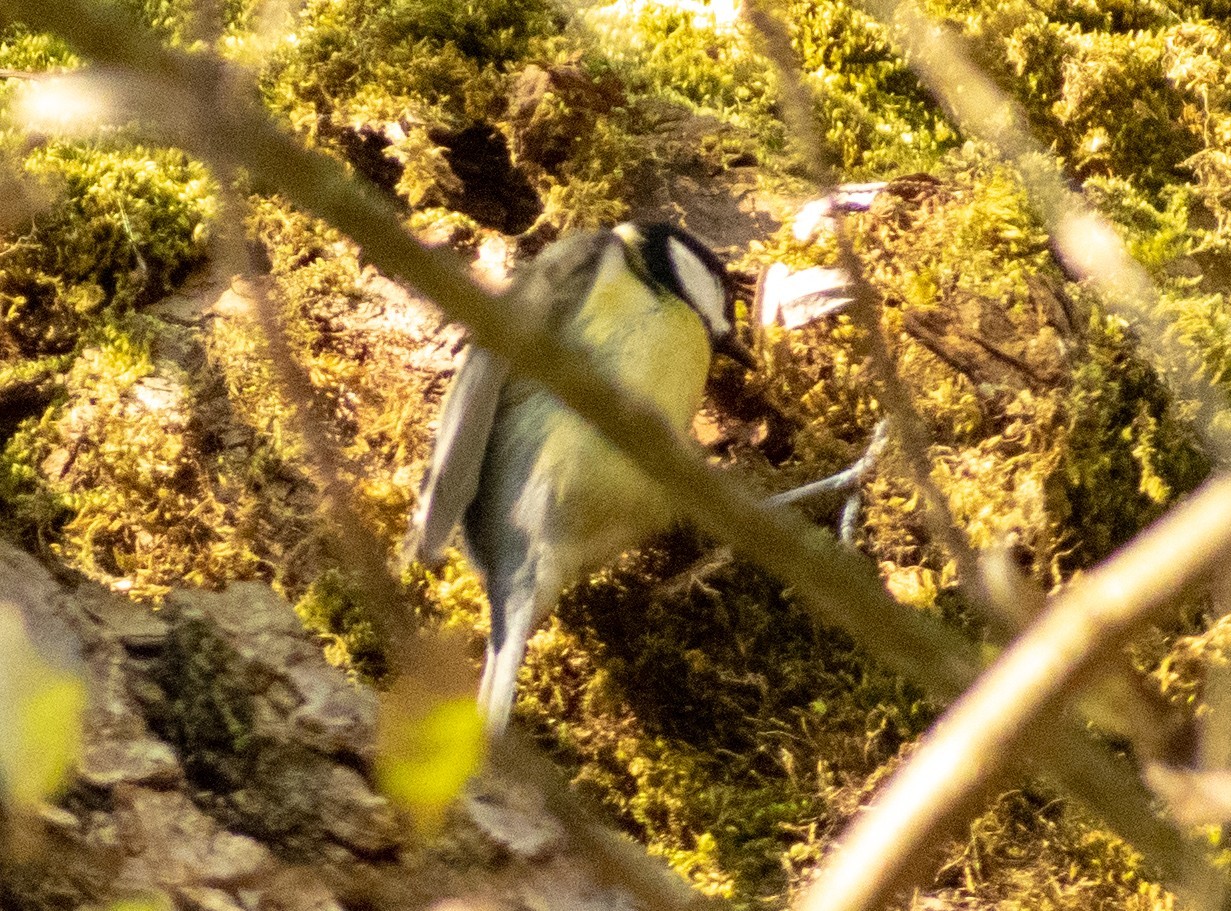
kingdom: Animalia
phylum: Chordata
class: Aves
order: Passeriformes
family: Paridae
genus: Parus
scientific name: Parus major
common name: Great tit
